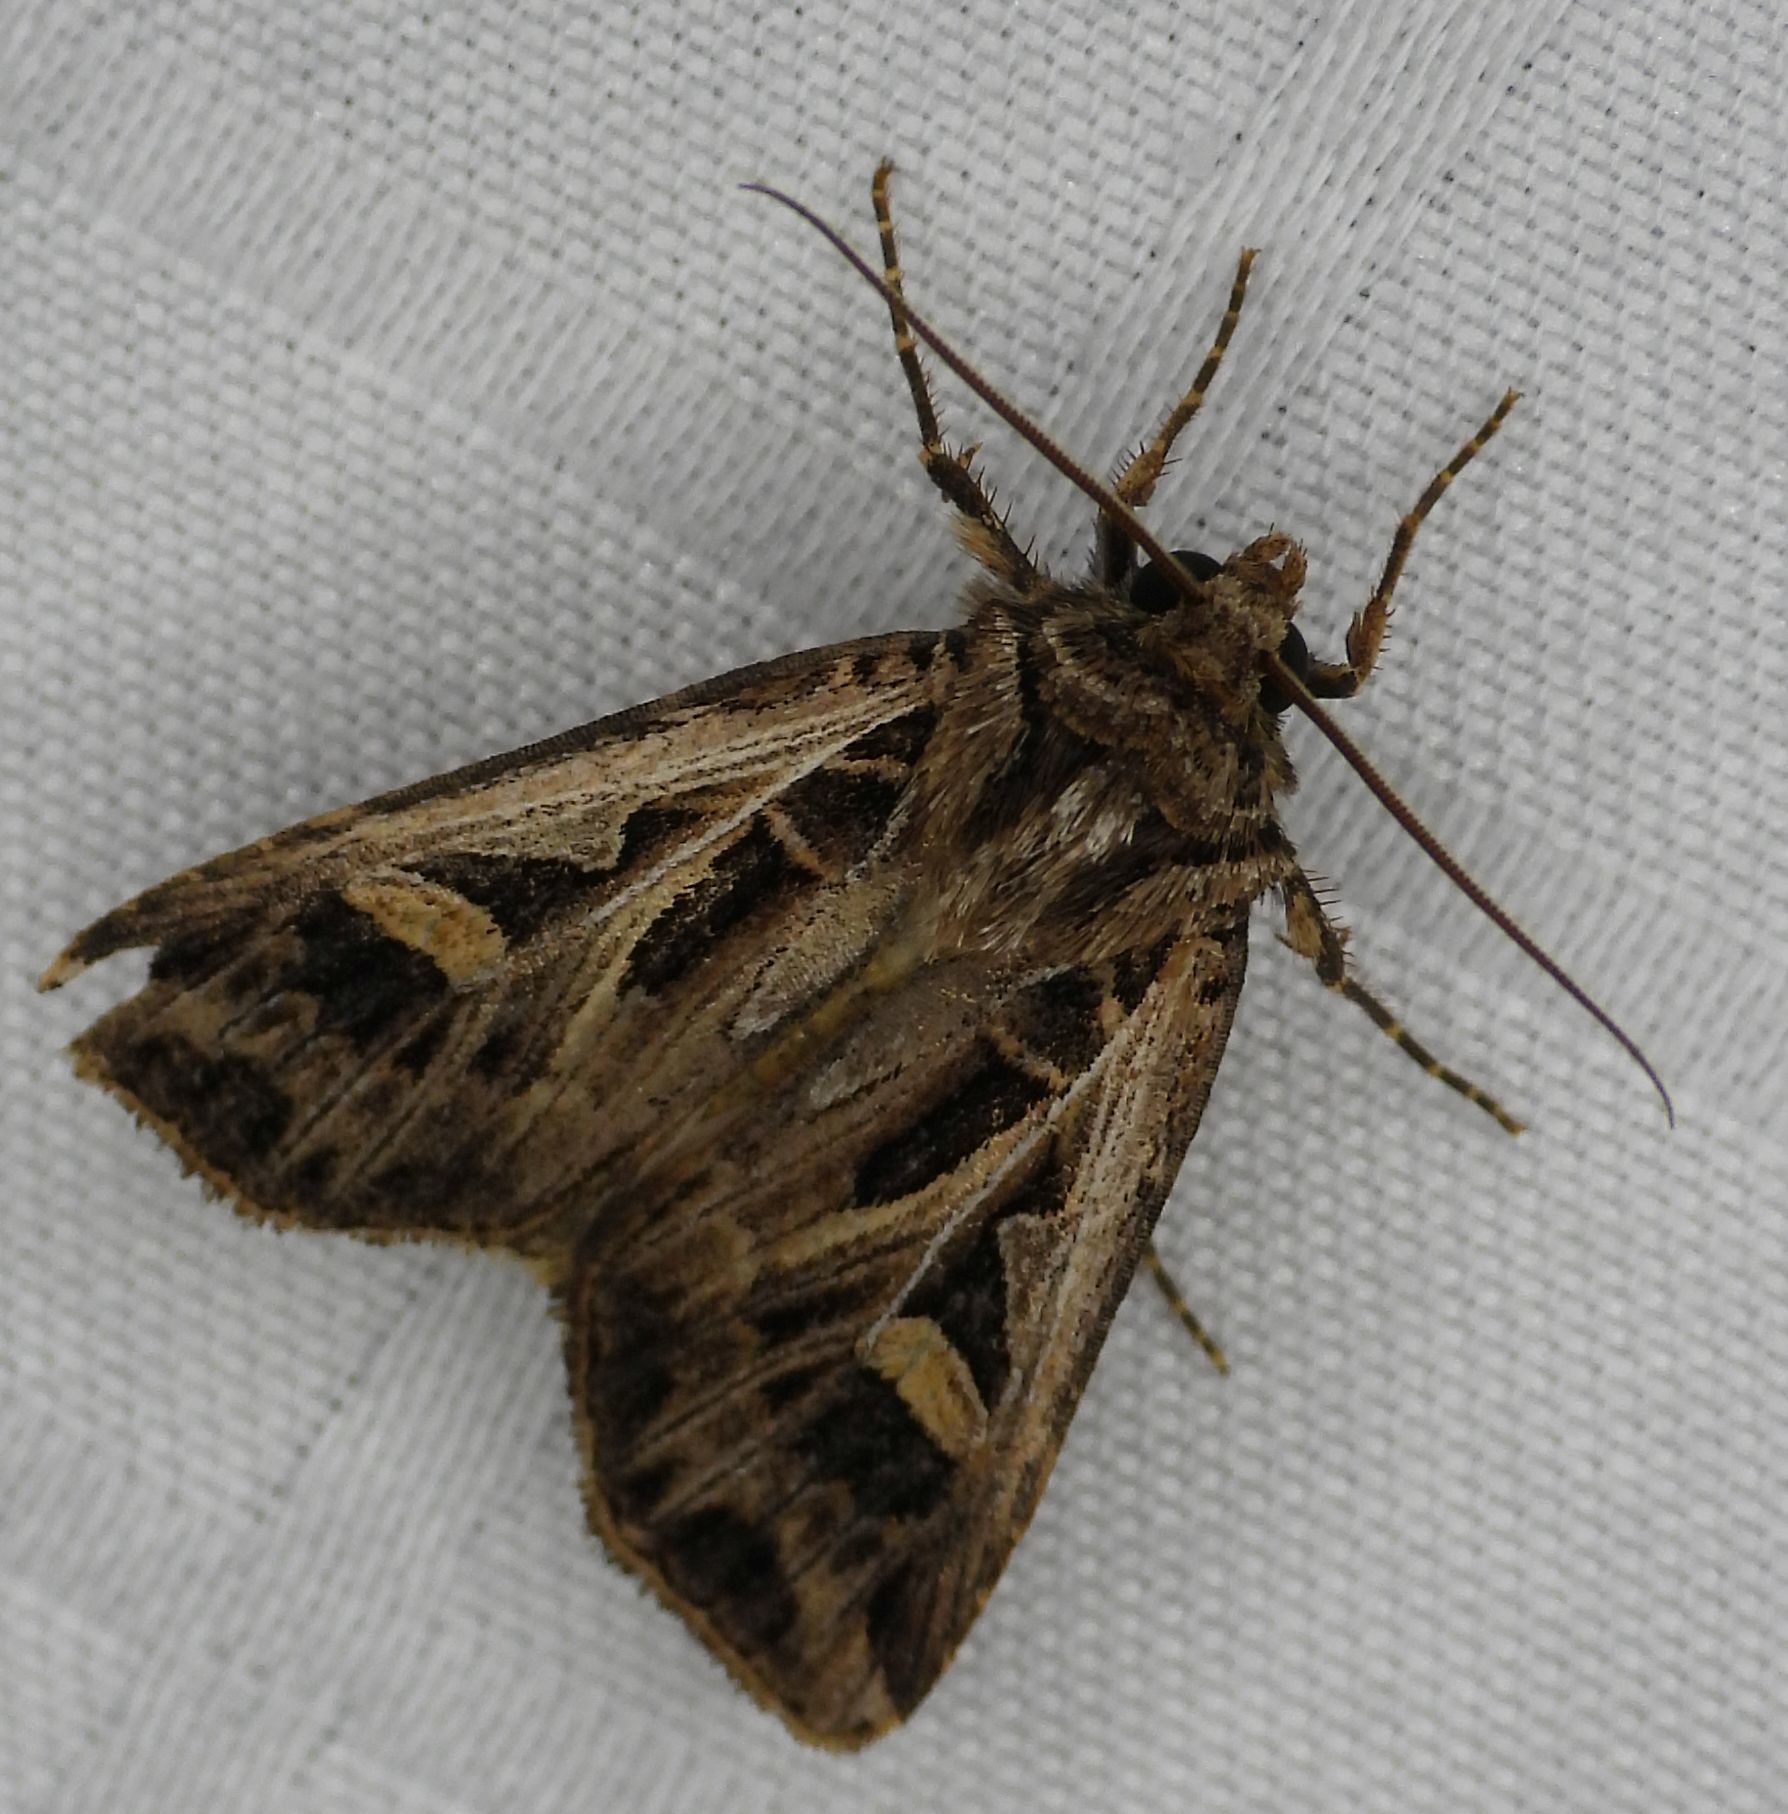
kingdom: Animalia
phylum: Arthropoda
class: Insecta
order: Lepidoptera
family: Noctuidae
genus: Feltia
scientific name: Feltia jaculifera
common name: Dingy cutworm moth
